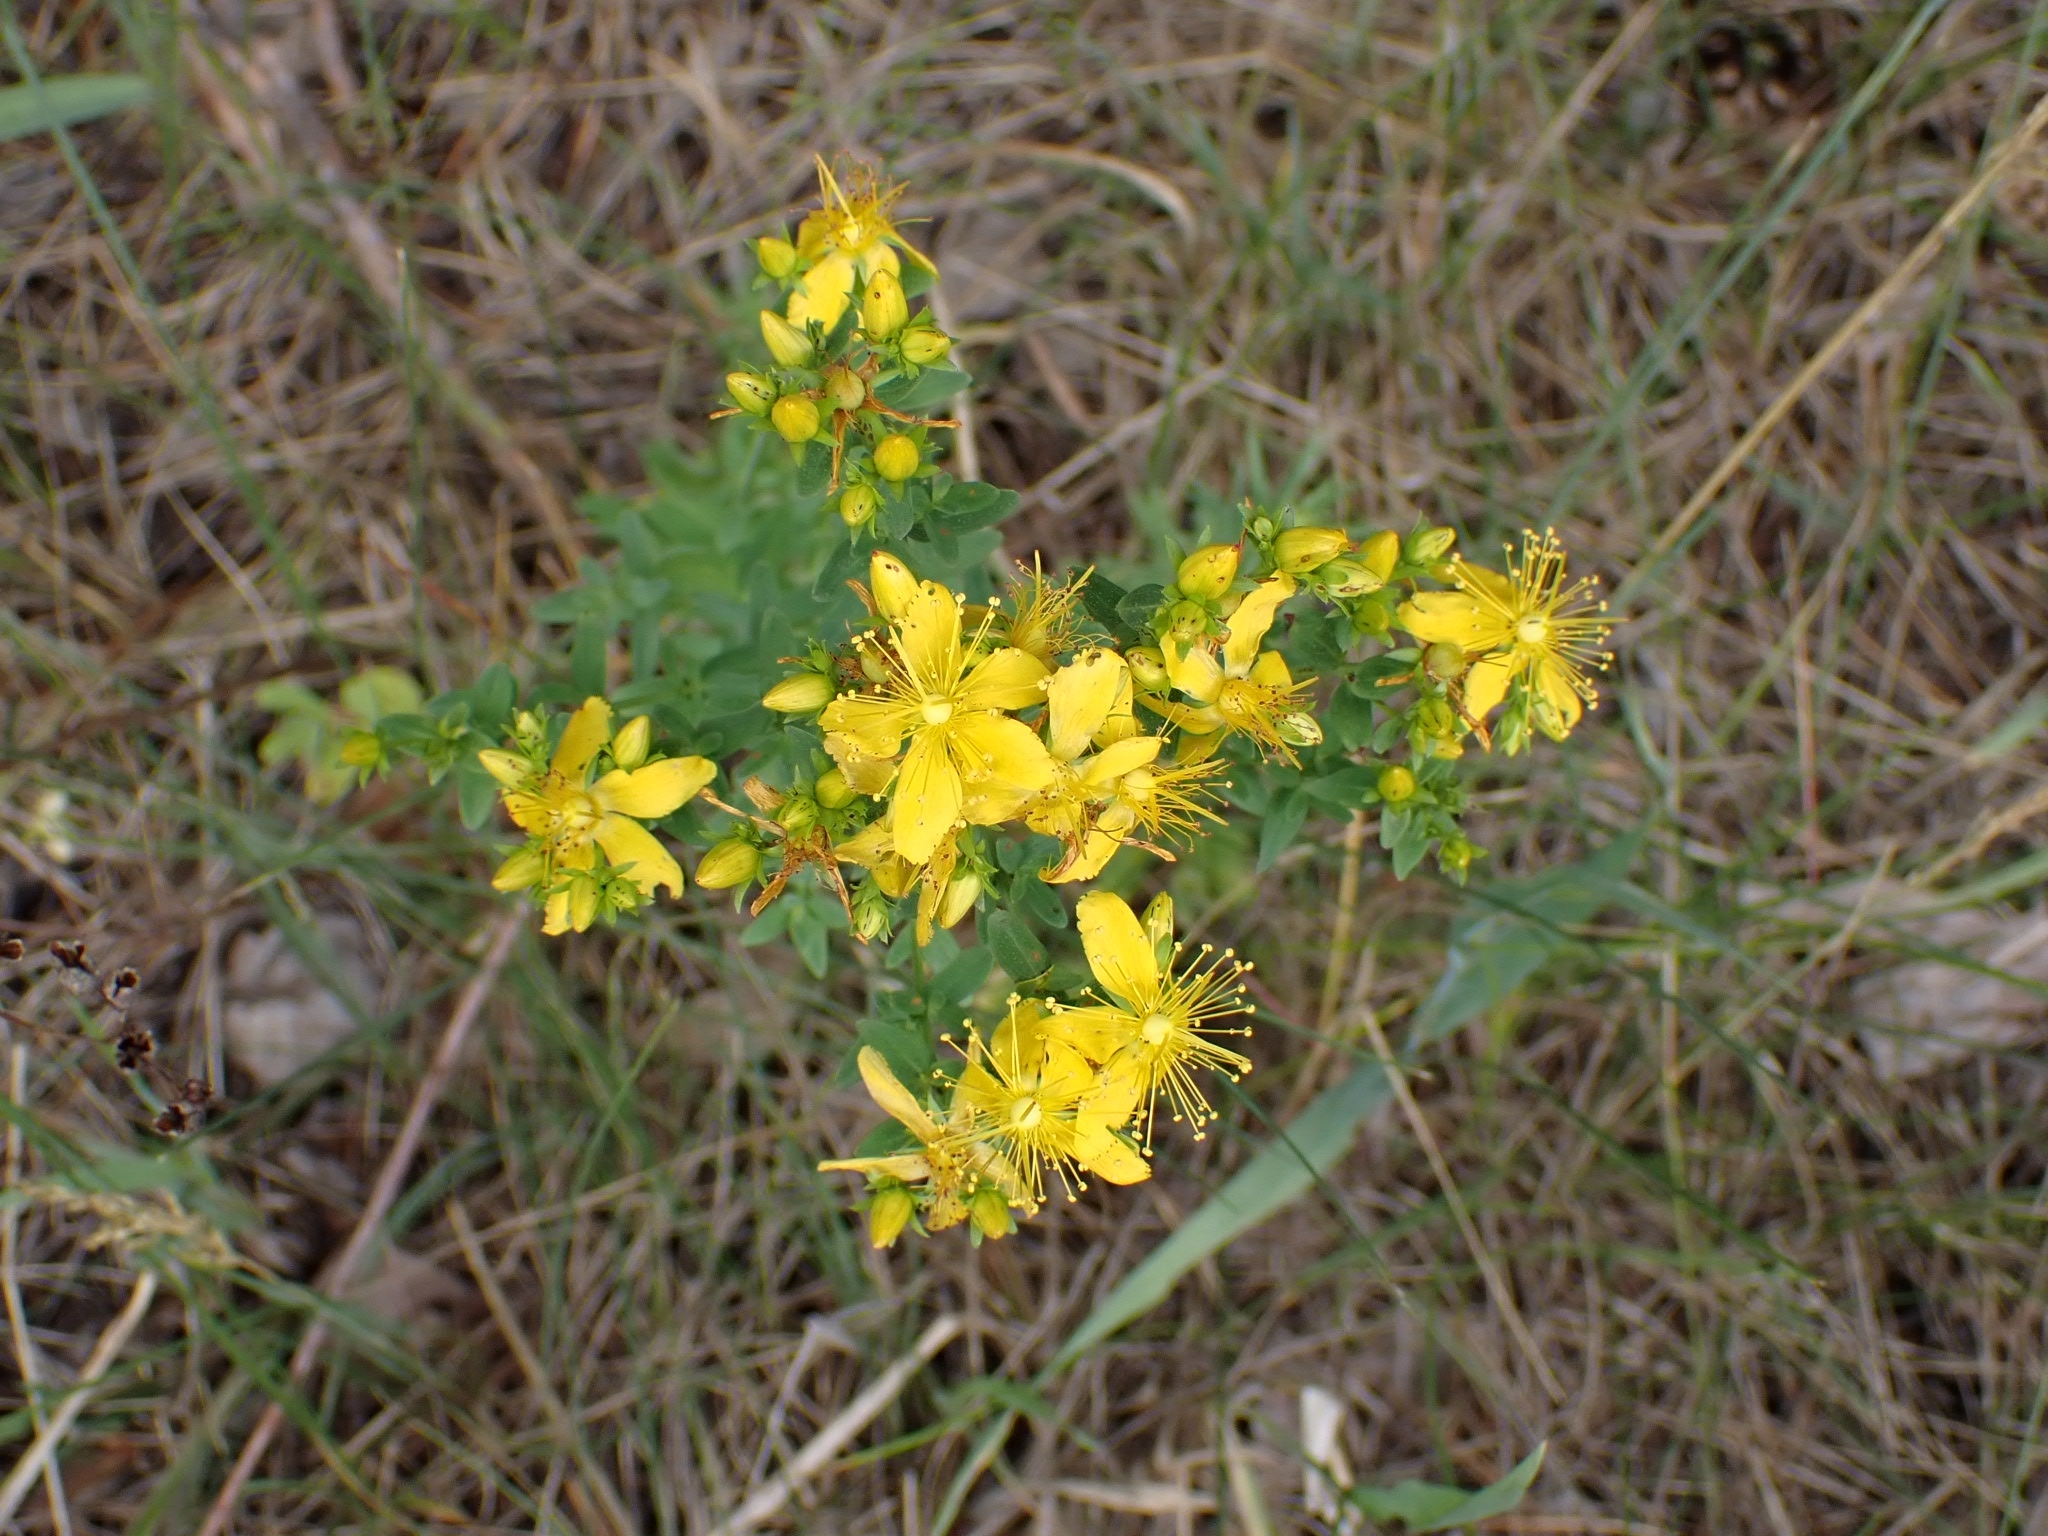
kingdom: Plantae
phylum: Tracheophyta
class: Magnoliopsida
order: Malpighiales
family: Hypericaceae
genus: Hypericum
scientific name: Hypericum perforatum
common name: Common st. johnswort
